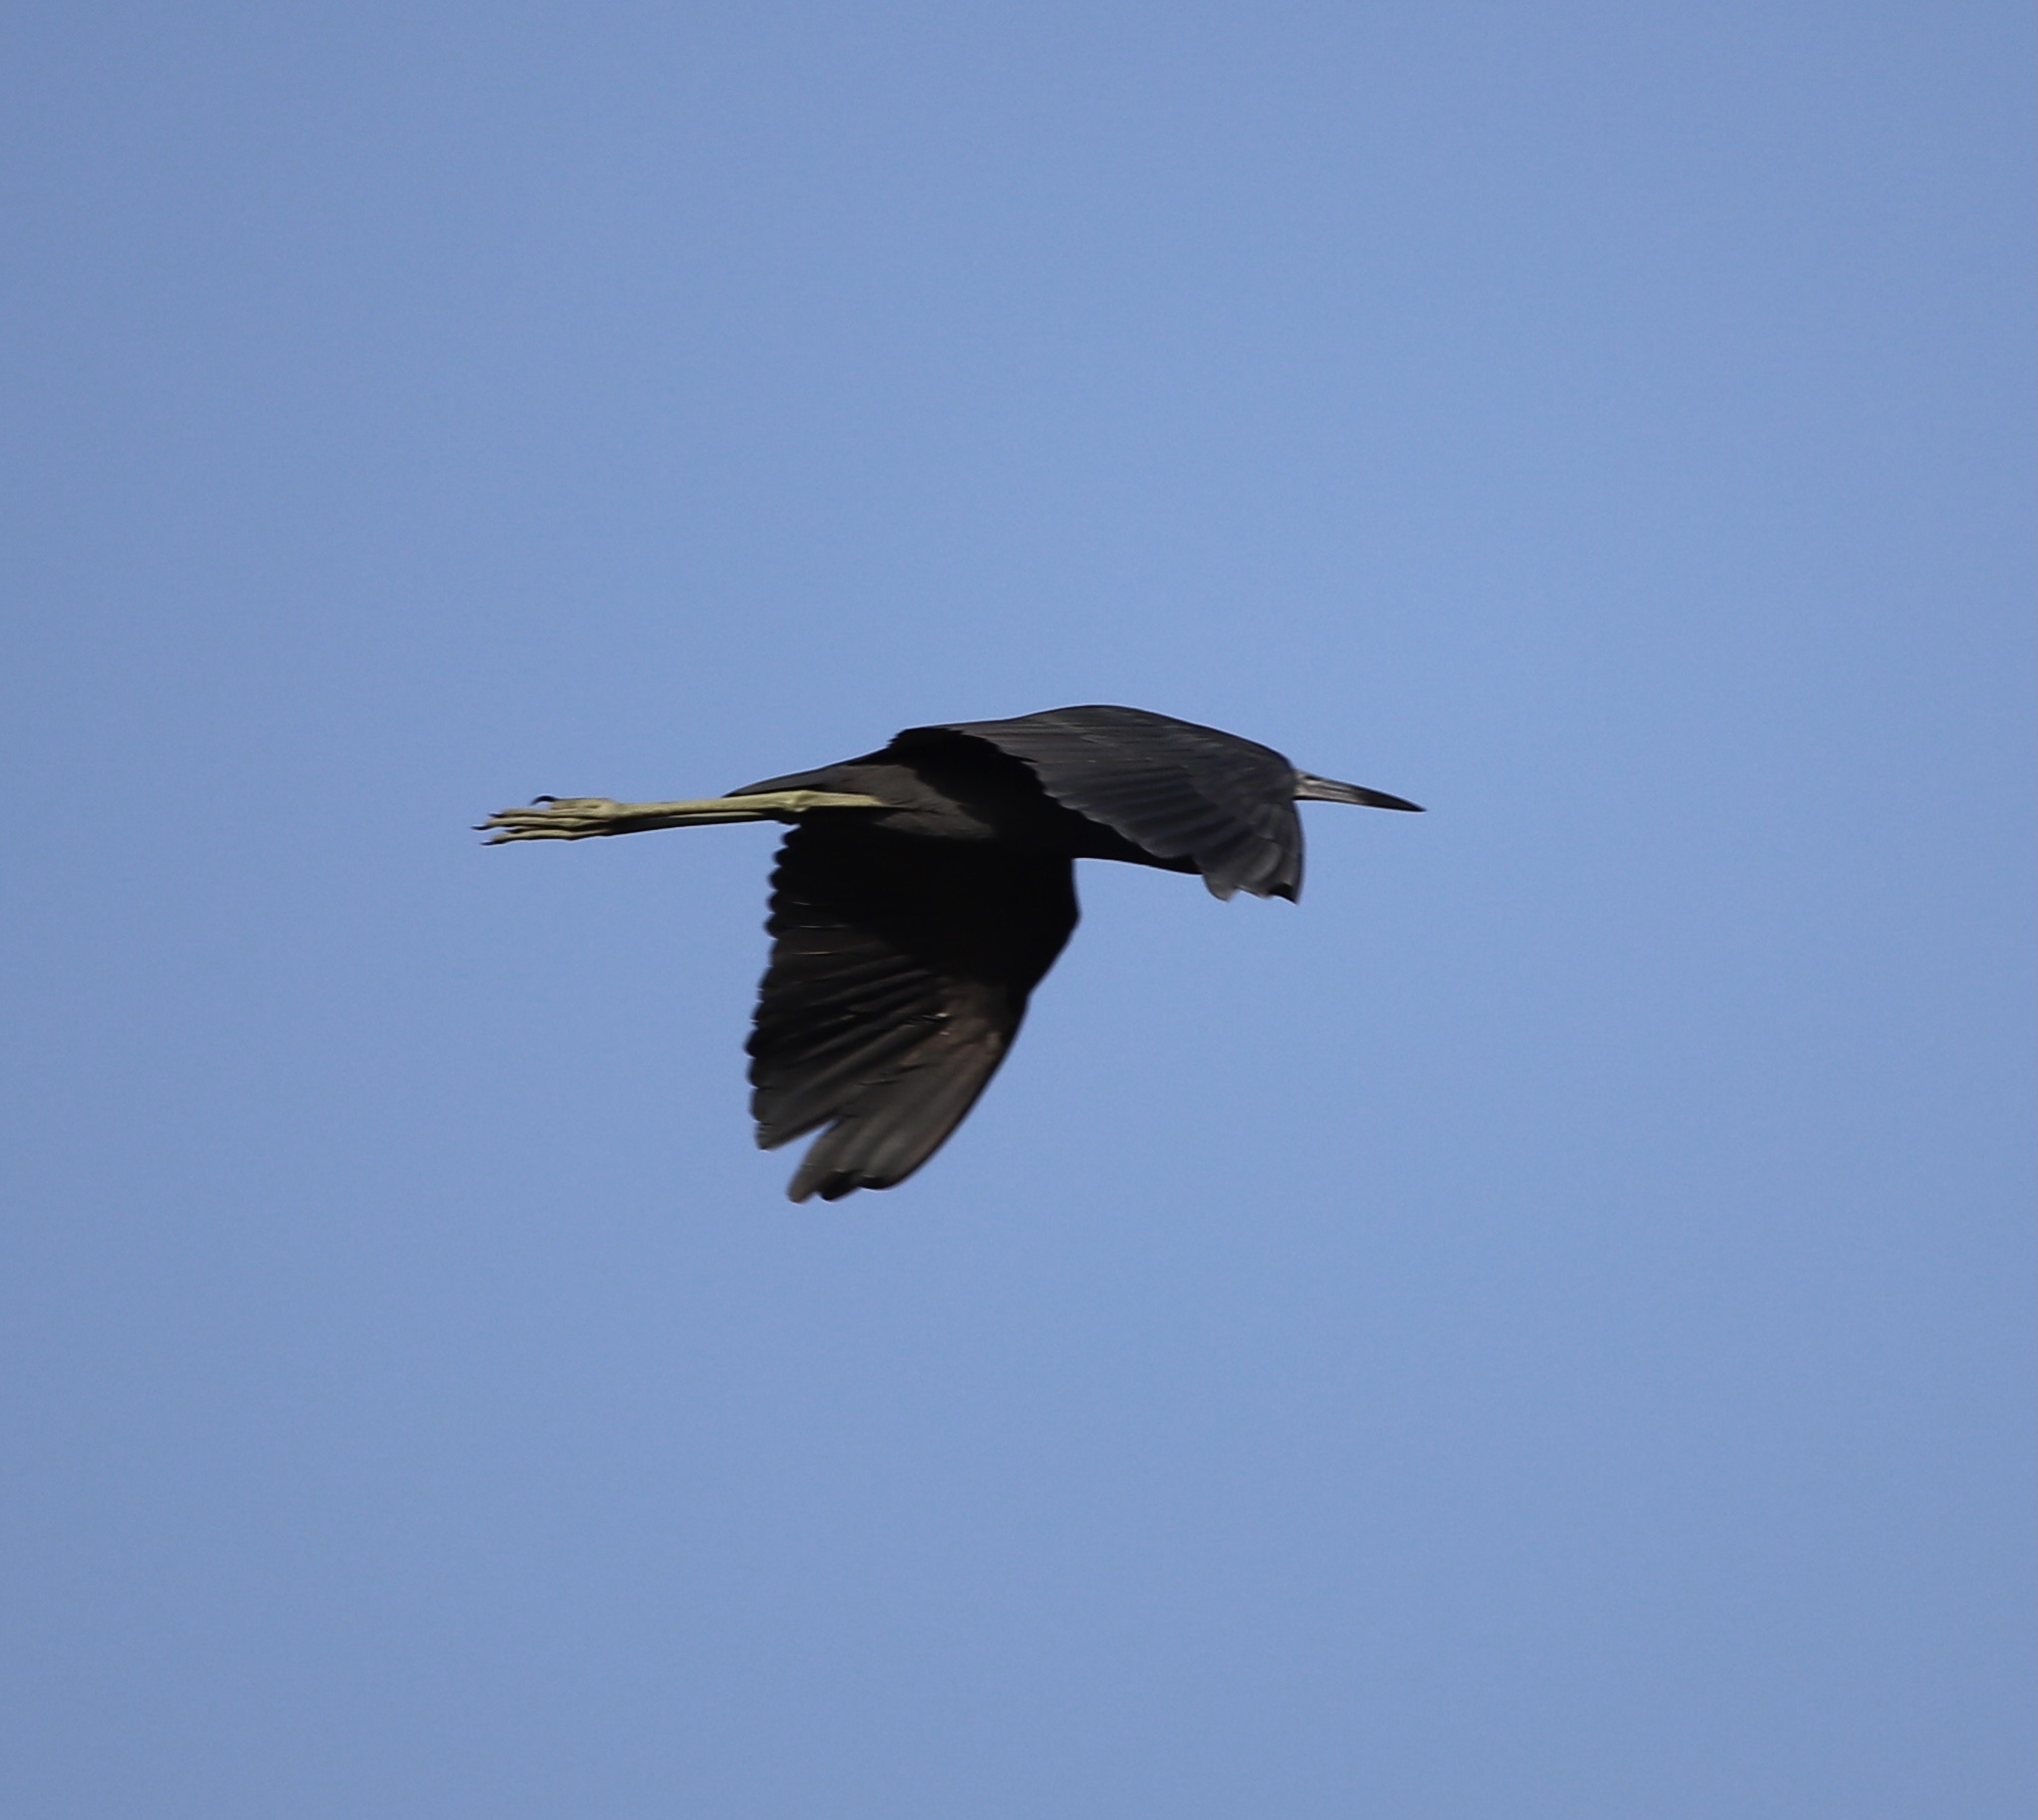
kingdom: Animalia
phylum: Chordata
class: Aves
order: Pelecaniformes
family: Ardeidae
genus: Egretta
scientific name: Egretta caerulea
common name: Little blue heron
